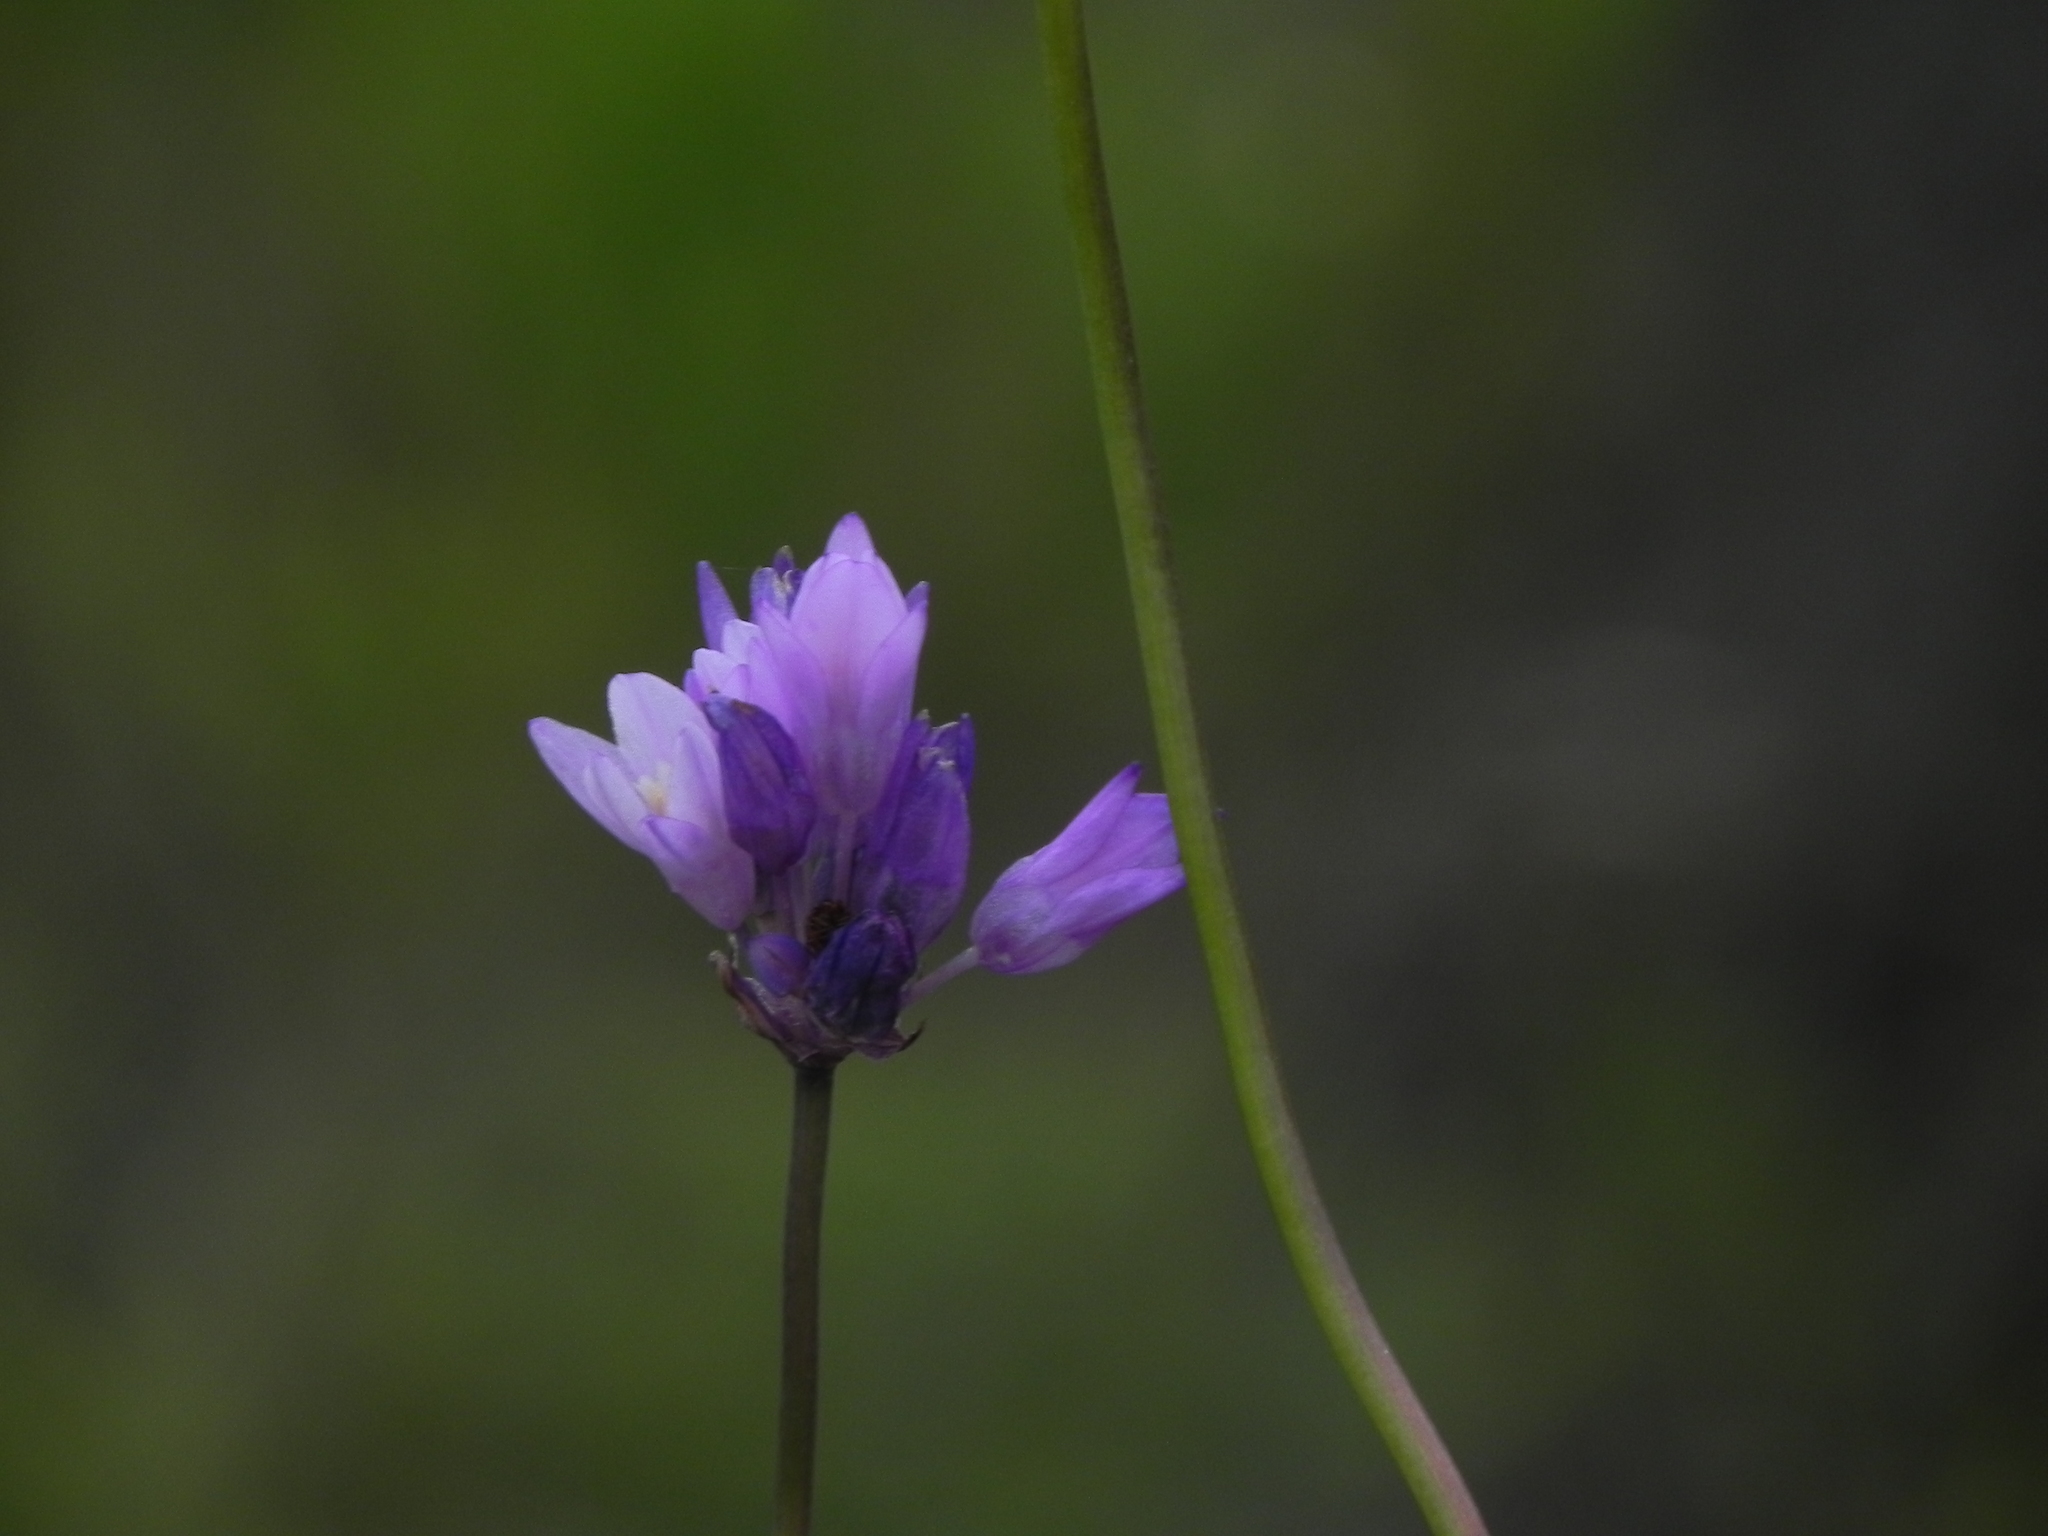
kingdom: Plantae
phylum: Tracheophyta
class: Liliopsida
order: Asparagales
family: Asparagaceae
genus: Dipterostemon
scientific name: Dipterostemon capitatus
